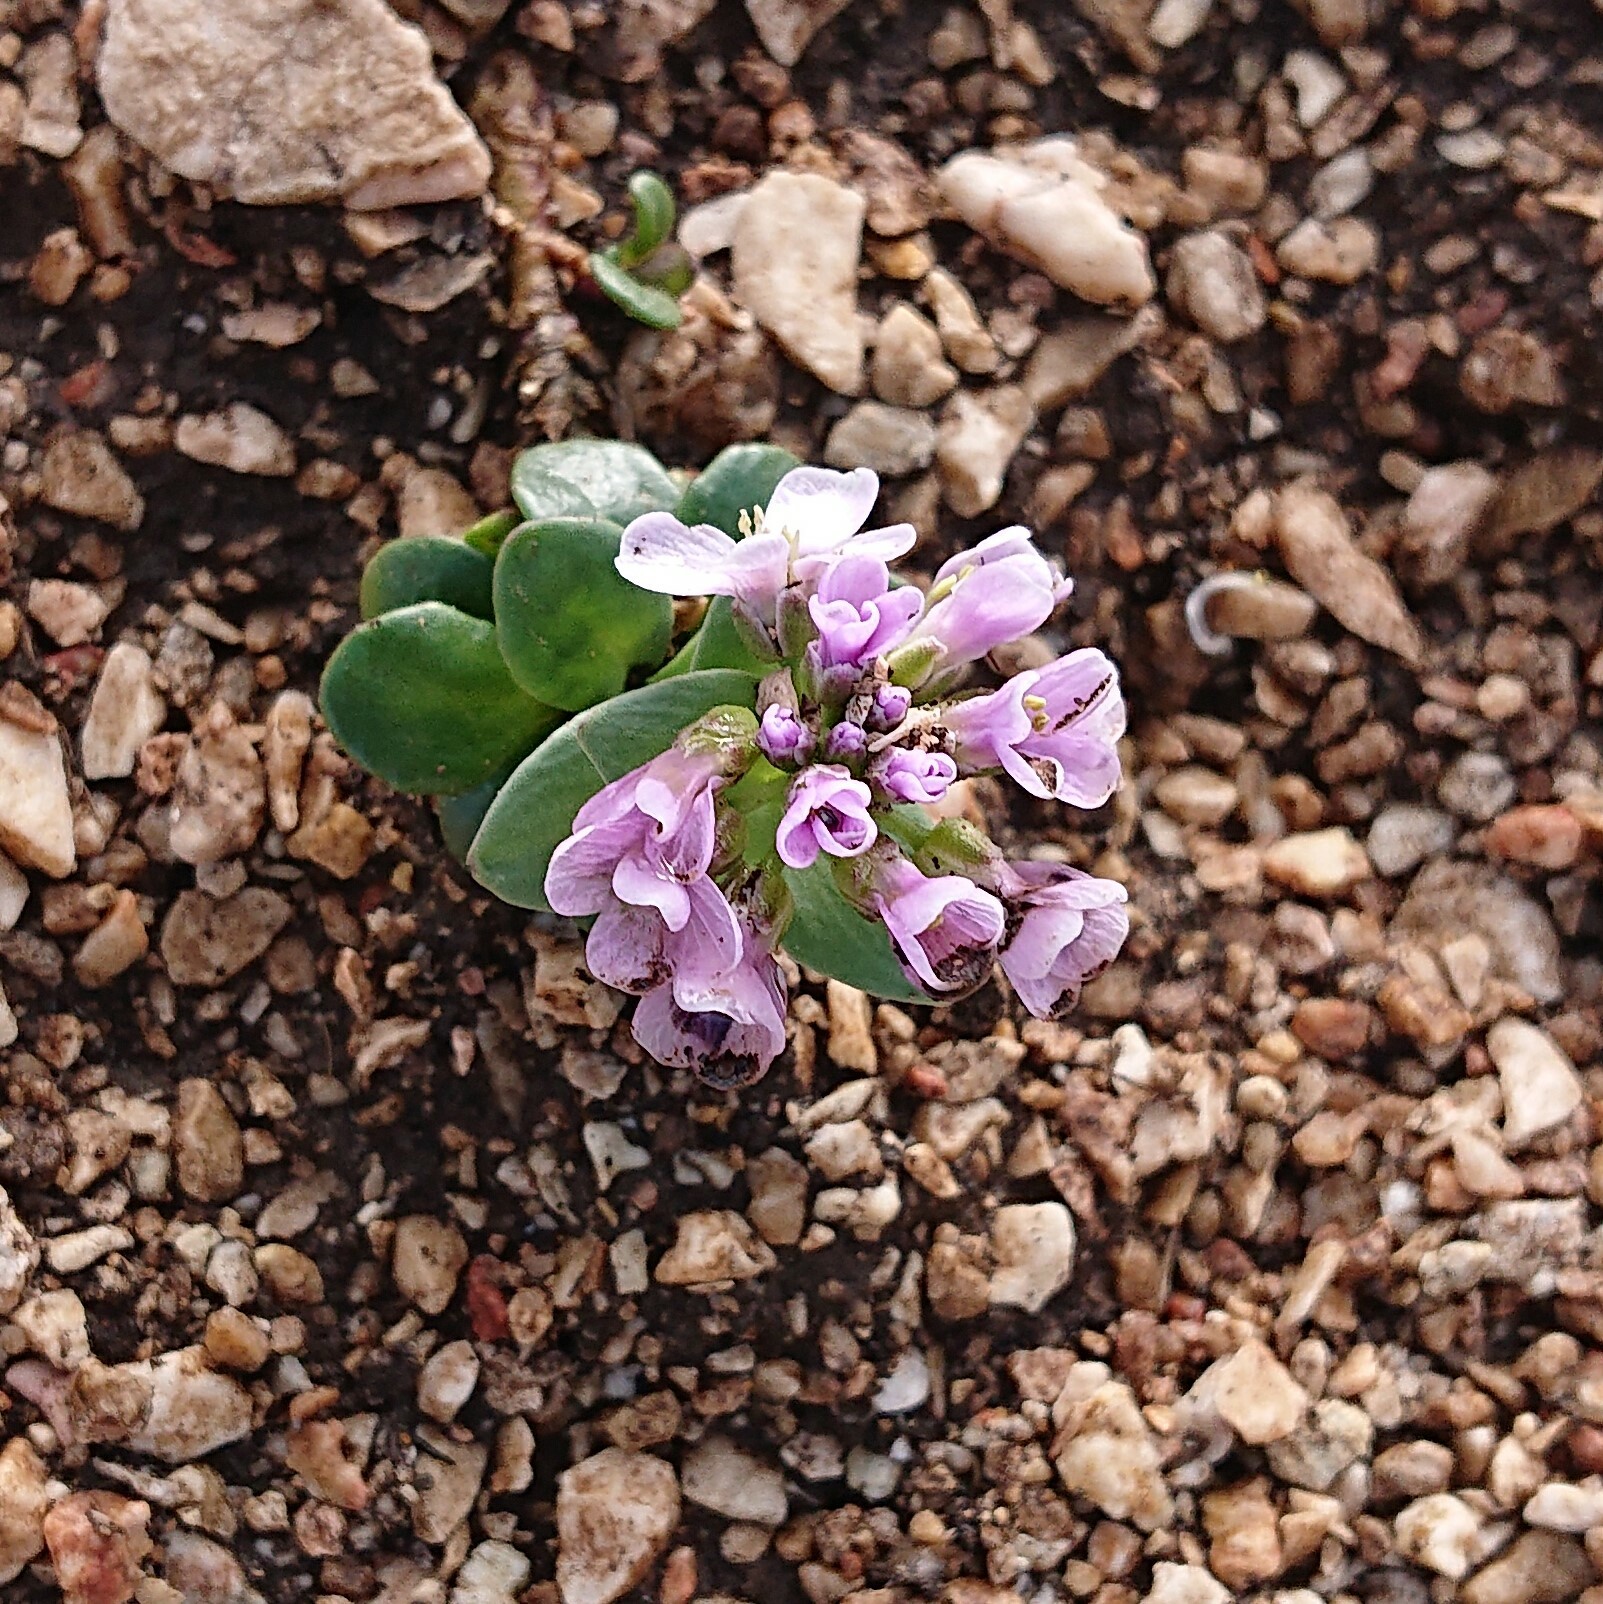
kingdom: Plantae
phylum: Tracheophyta
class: Magnoliopsida
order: Brassicales
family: Brassicaceae
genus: Noccaea
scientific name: Noccaea rotundifolia
